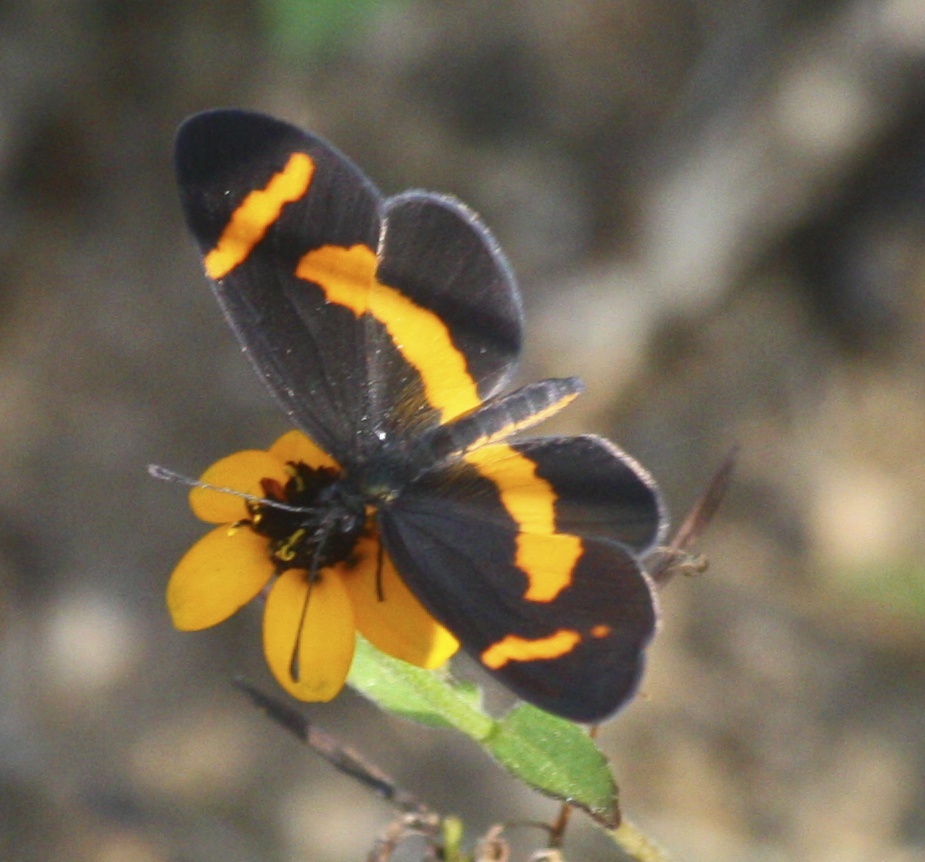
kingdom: Animalia
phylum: Arthropoda
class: Insecta
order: Lepidoptera
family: Nymphalidae
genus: Microtia
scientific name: Microtia elva
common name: Elf
